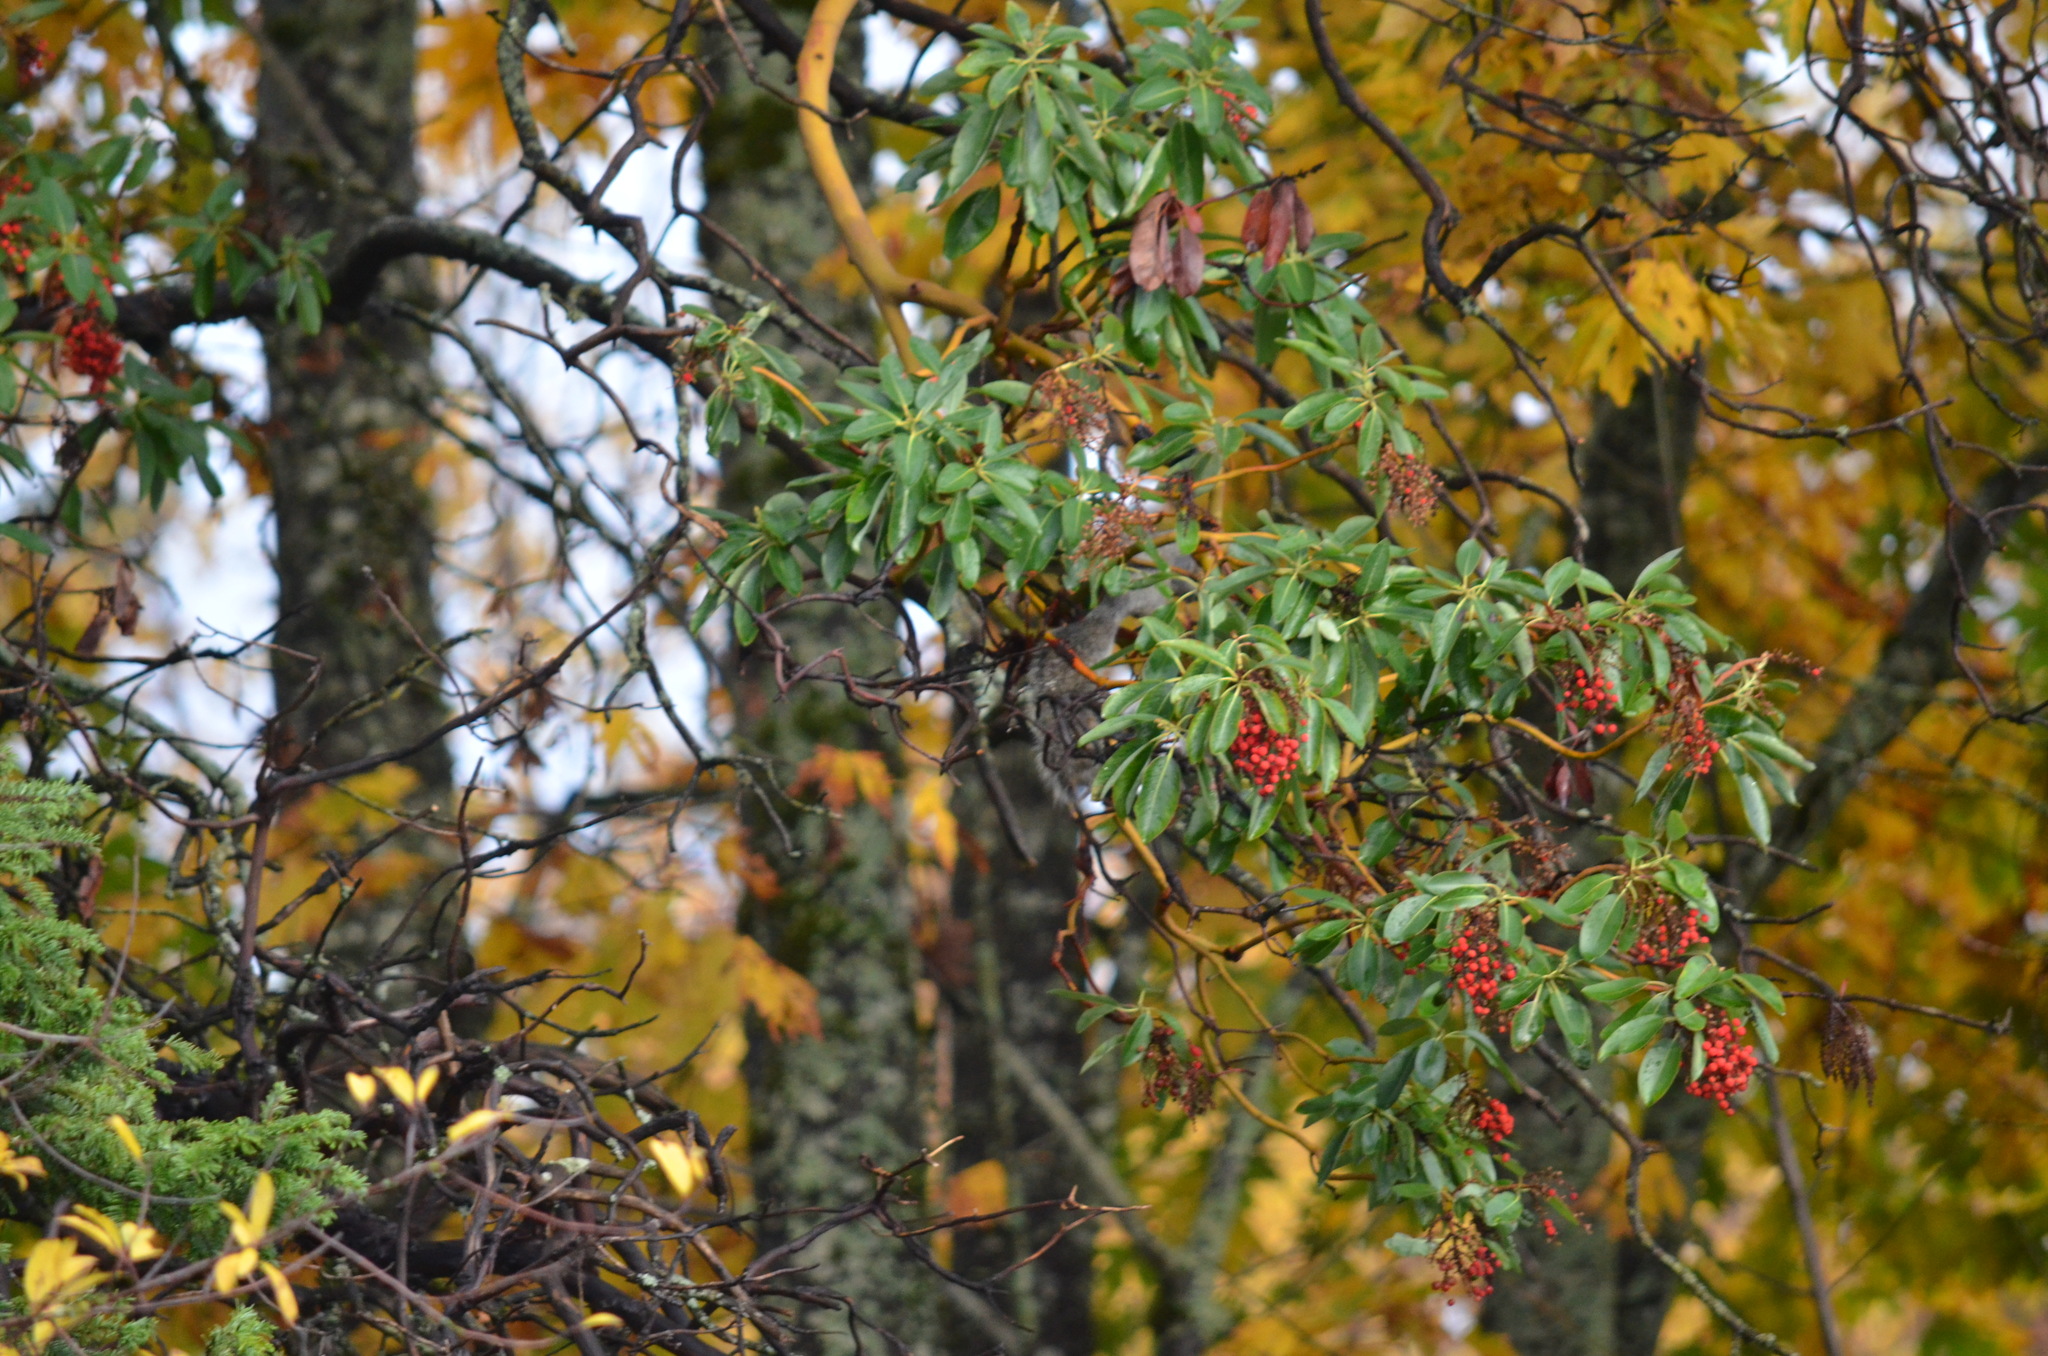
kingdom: Animalia
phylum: Chordata
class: Mammalia
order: Rodentia
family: Sciuridae
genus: Sciurus
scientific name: Sciurus carolinensis
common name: Eastern gray squirrel
